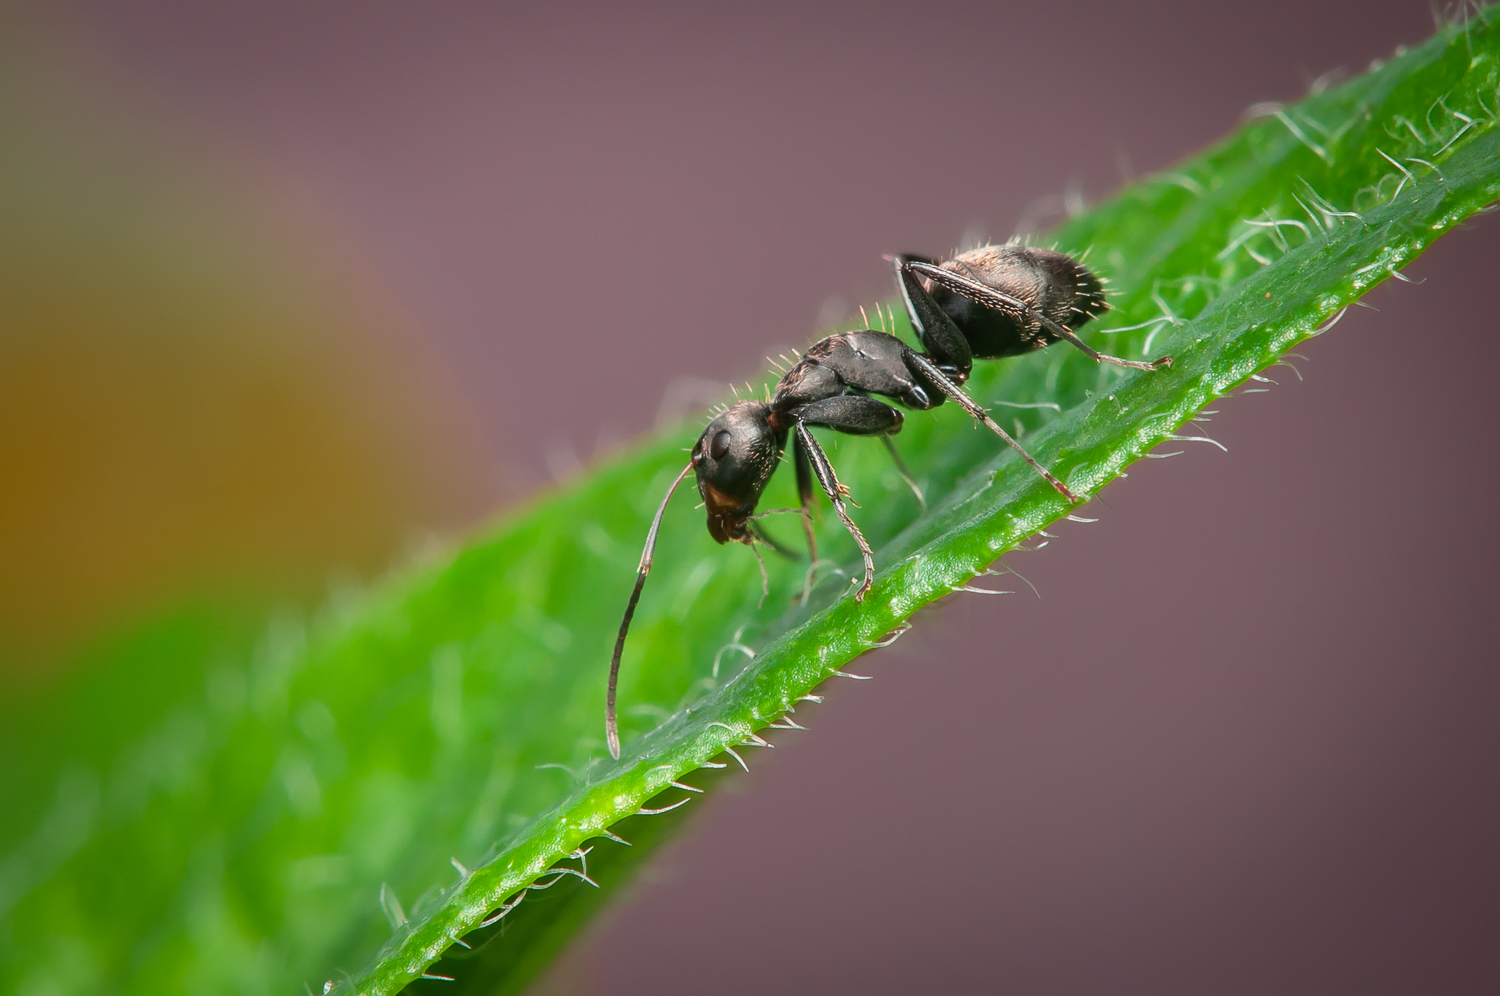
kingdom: Animalia
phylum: Arthropoda
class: Insecta
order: Hymenoptera
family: Formicidae
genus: Camponotus
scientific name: Camponotus
